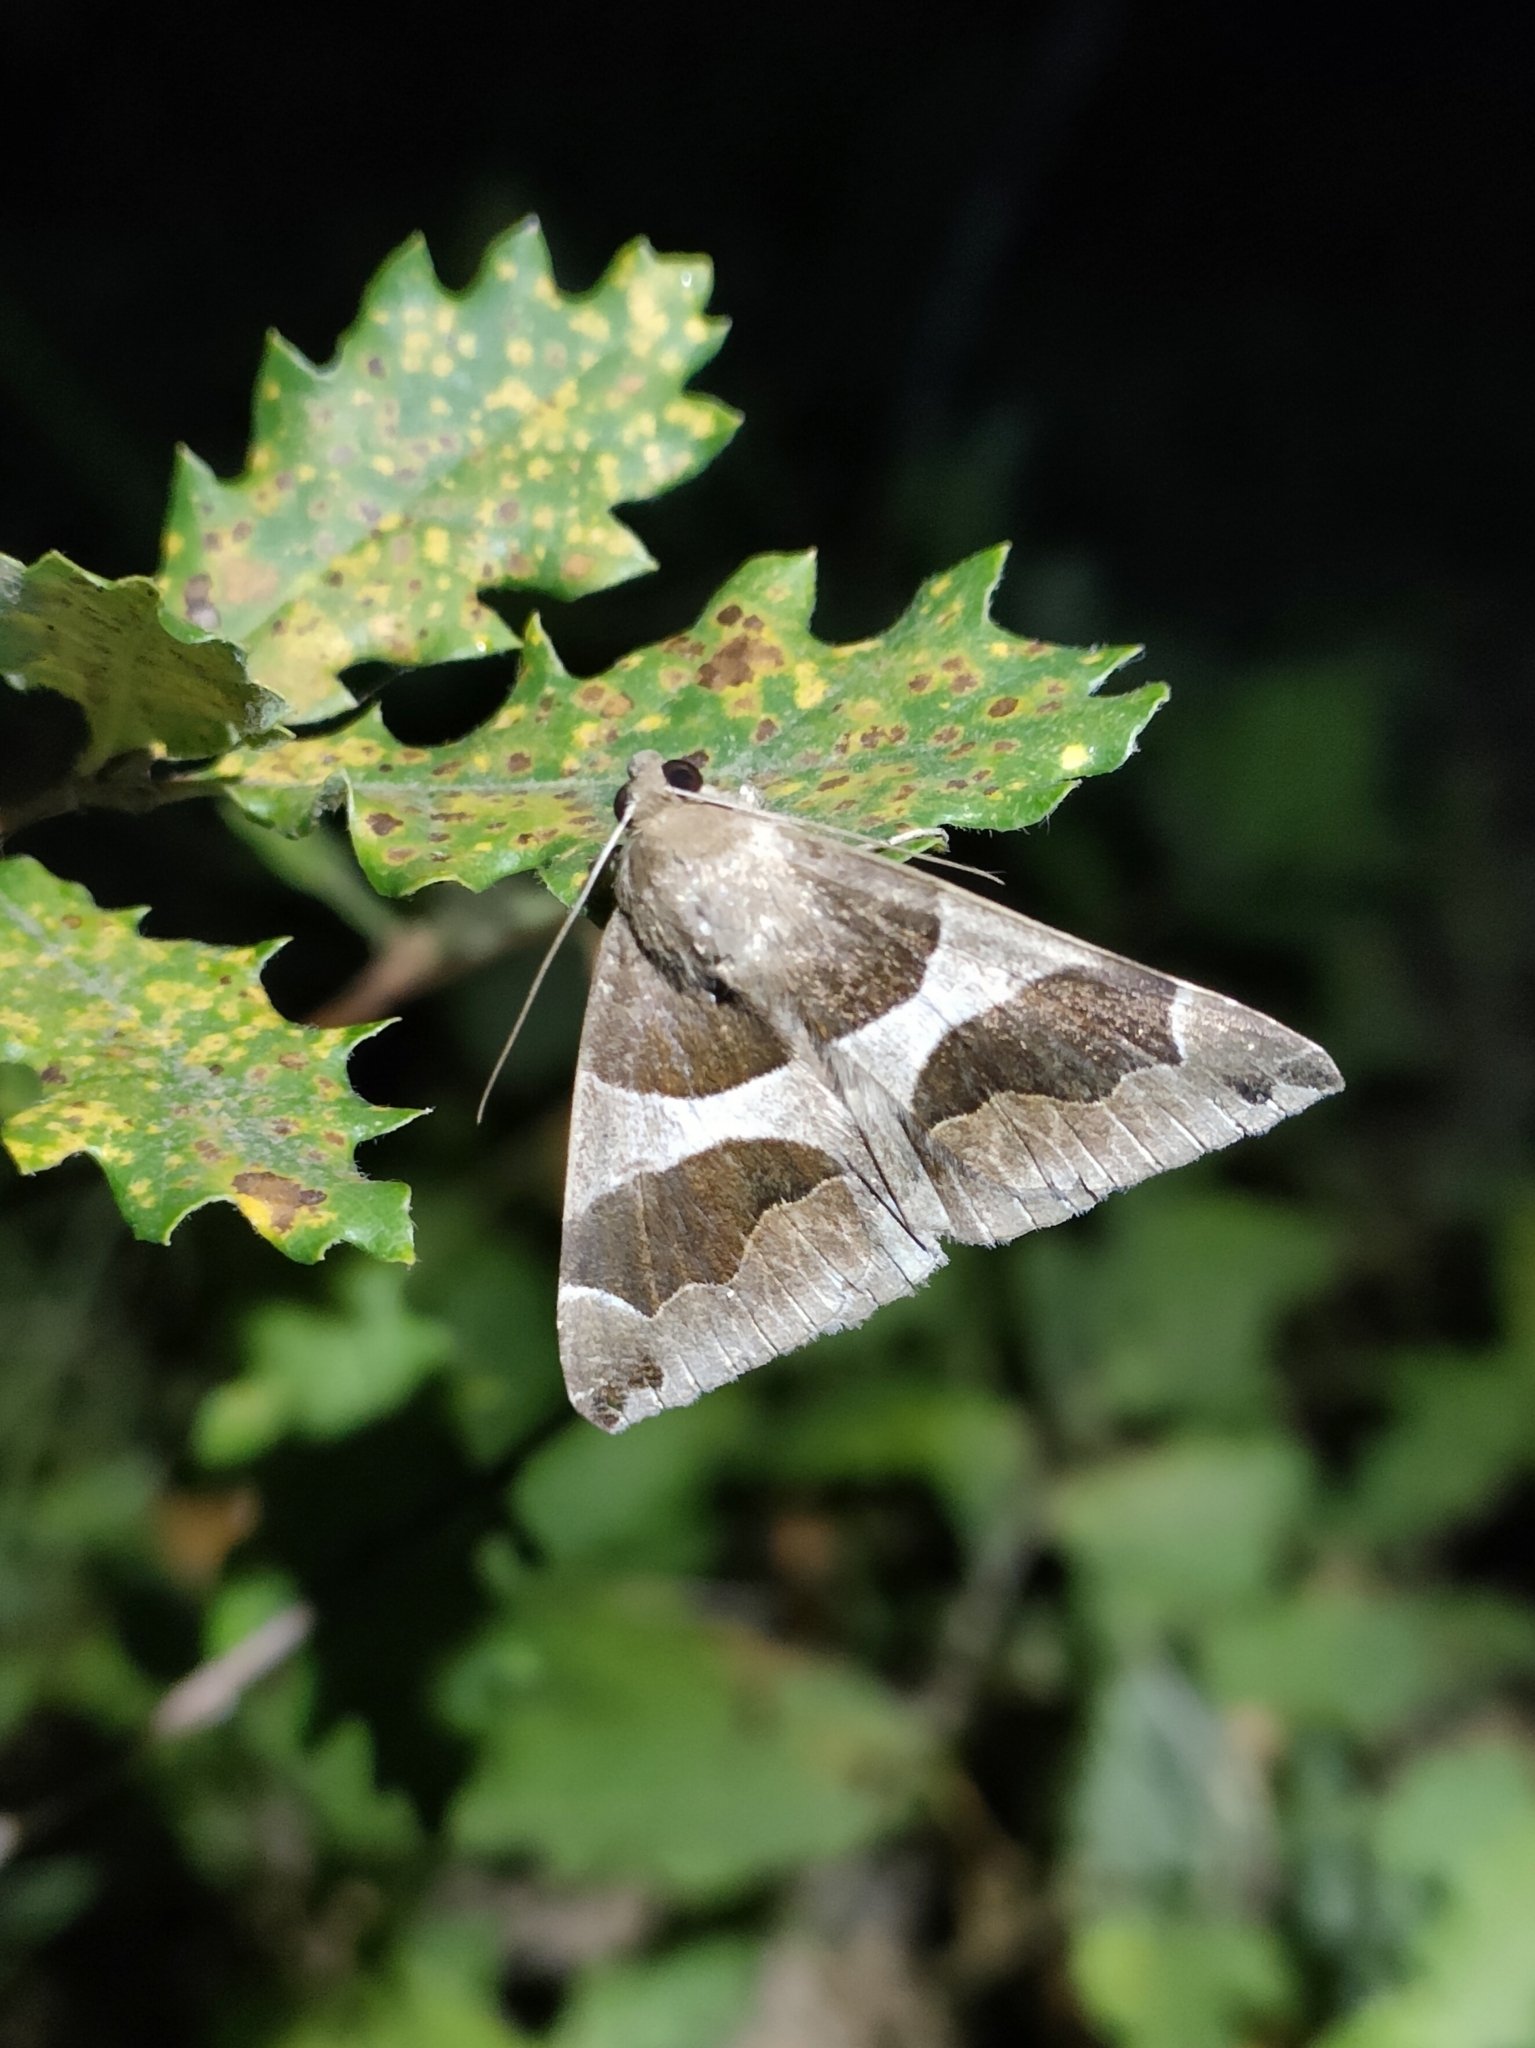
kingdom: Animalia
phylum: Arthropoda
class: Insecta
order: Lepidoptera
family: Erebidae
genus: Dysgonia
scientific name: Dysgonia algira
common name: Passenger
